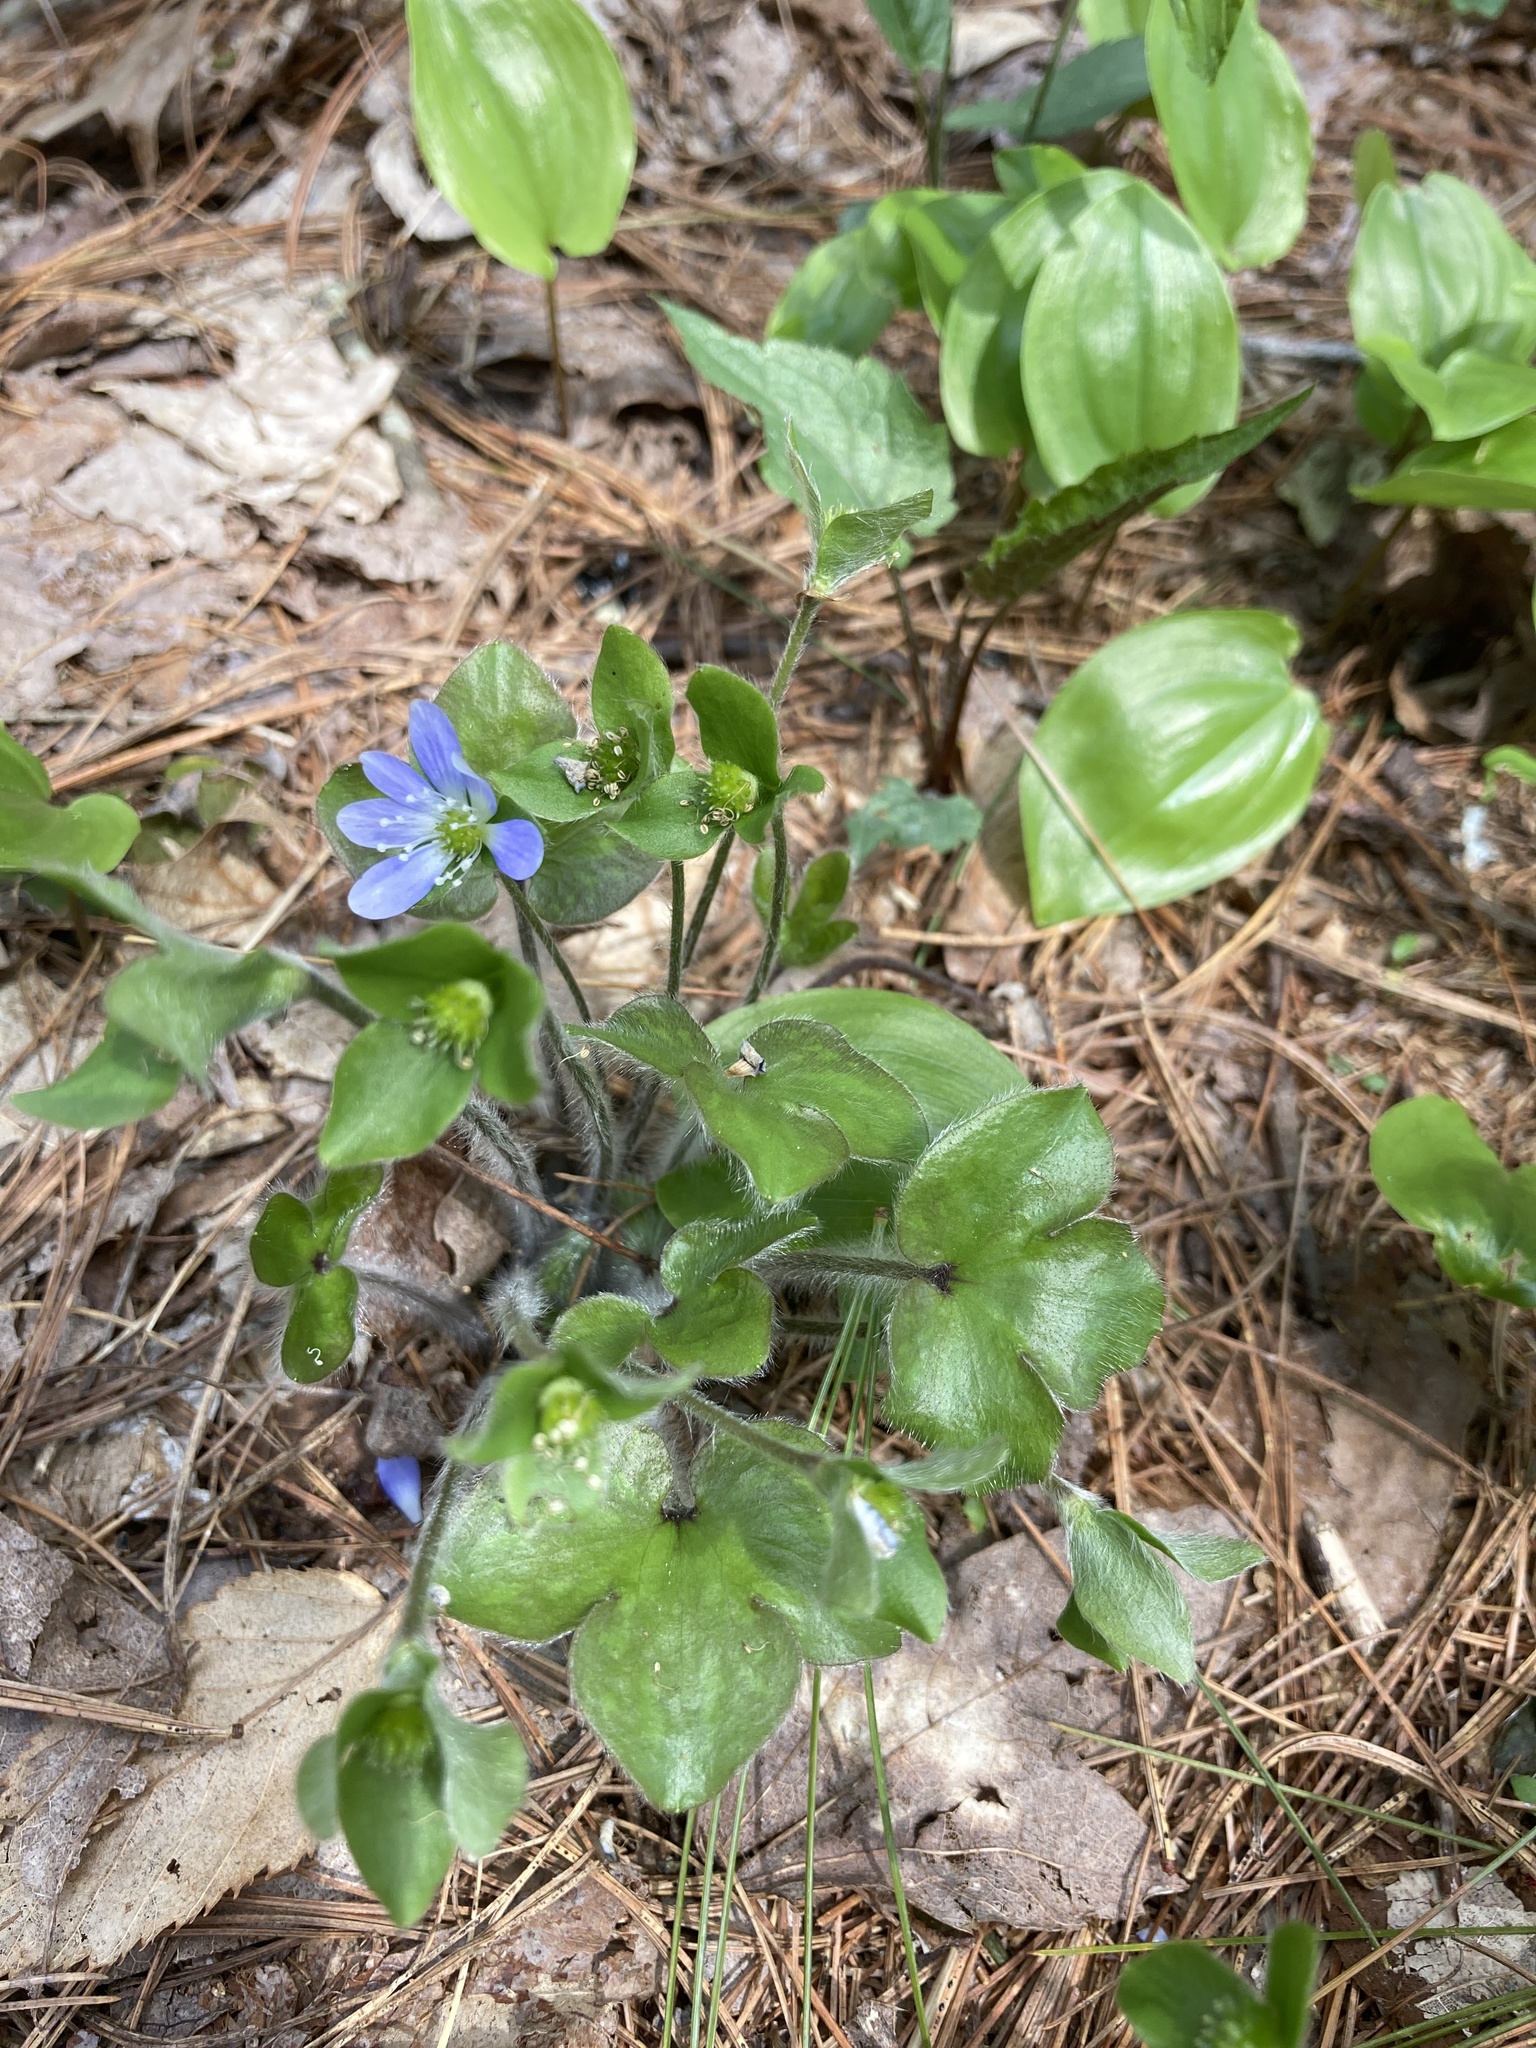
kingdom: Plantae
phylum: Tracheophyta
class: Magnoliopsida
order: Ranunculales
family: Ranunculaceae
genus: Hepatica
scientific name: Hepatica
